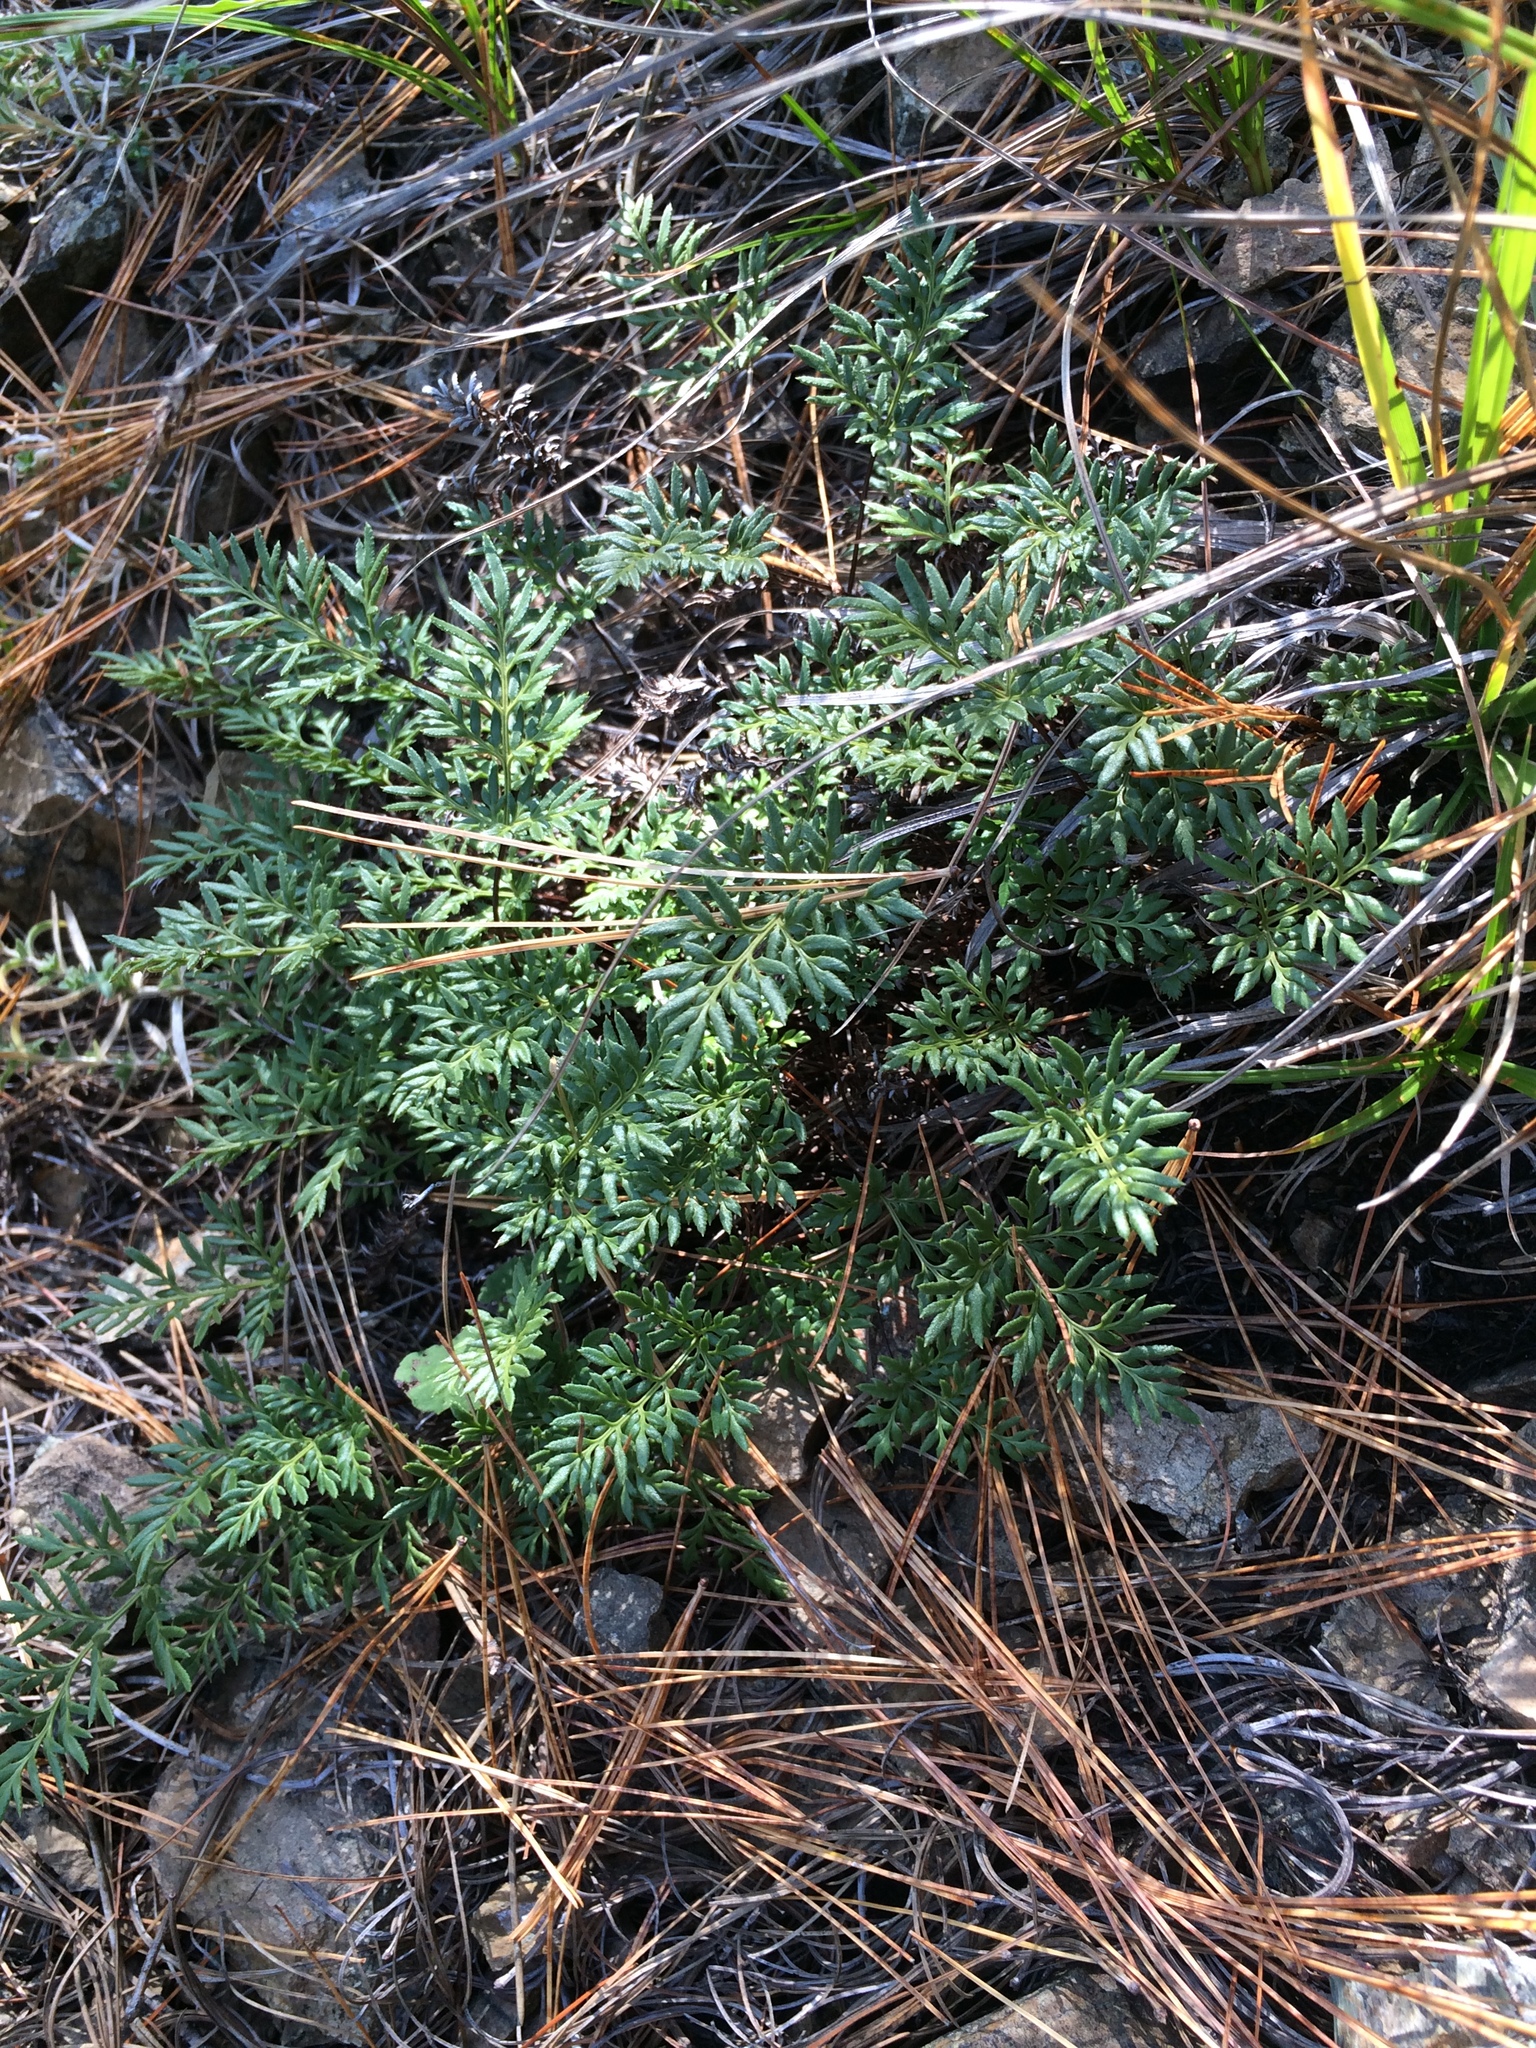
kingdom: Plantae
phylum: Tracheophyta
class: Polypodiopsida
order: Polypodiales
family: Pteridaceae
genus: Aspidotis
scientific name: Aspidotis densa
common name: Indian's dream
